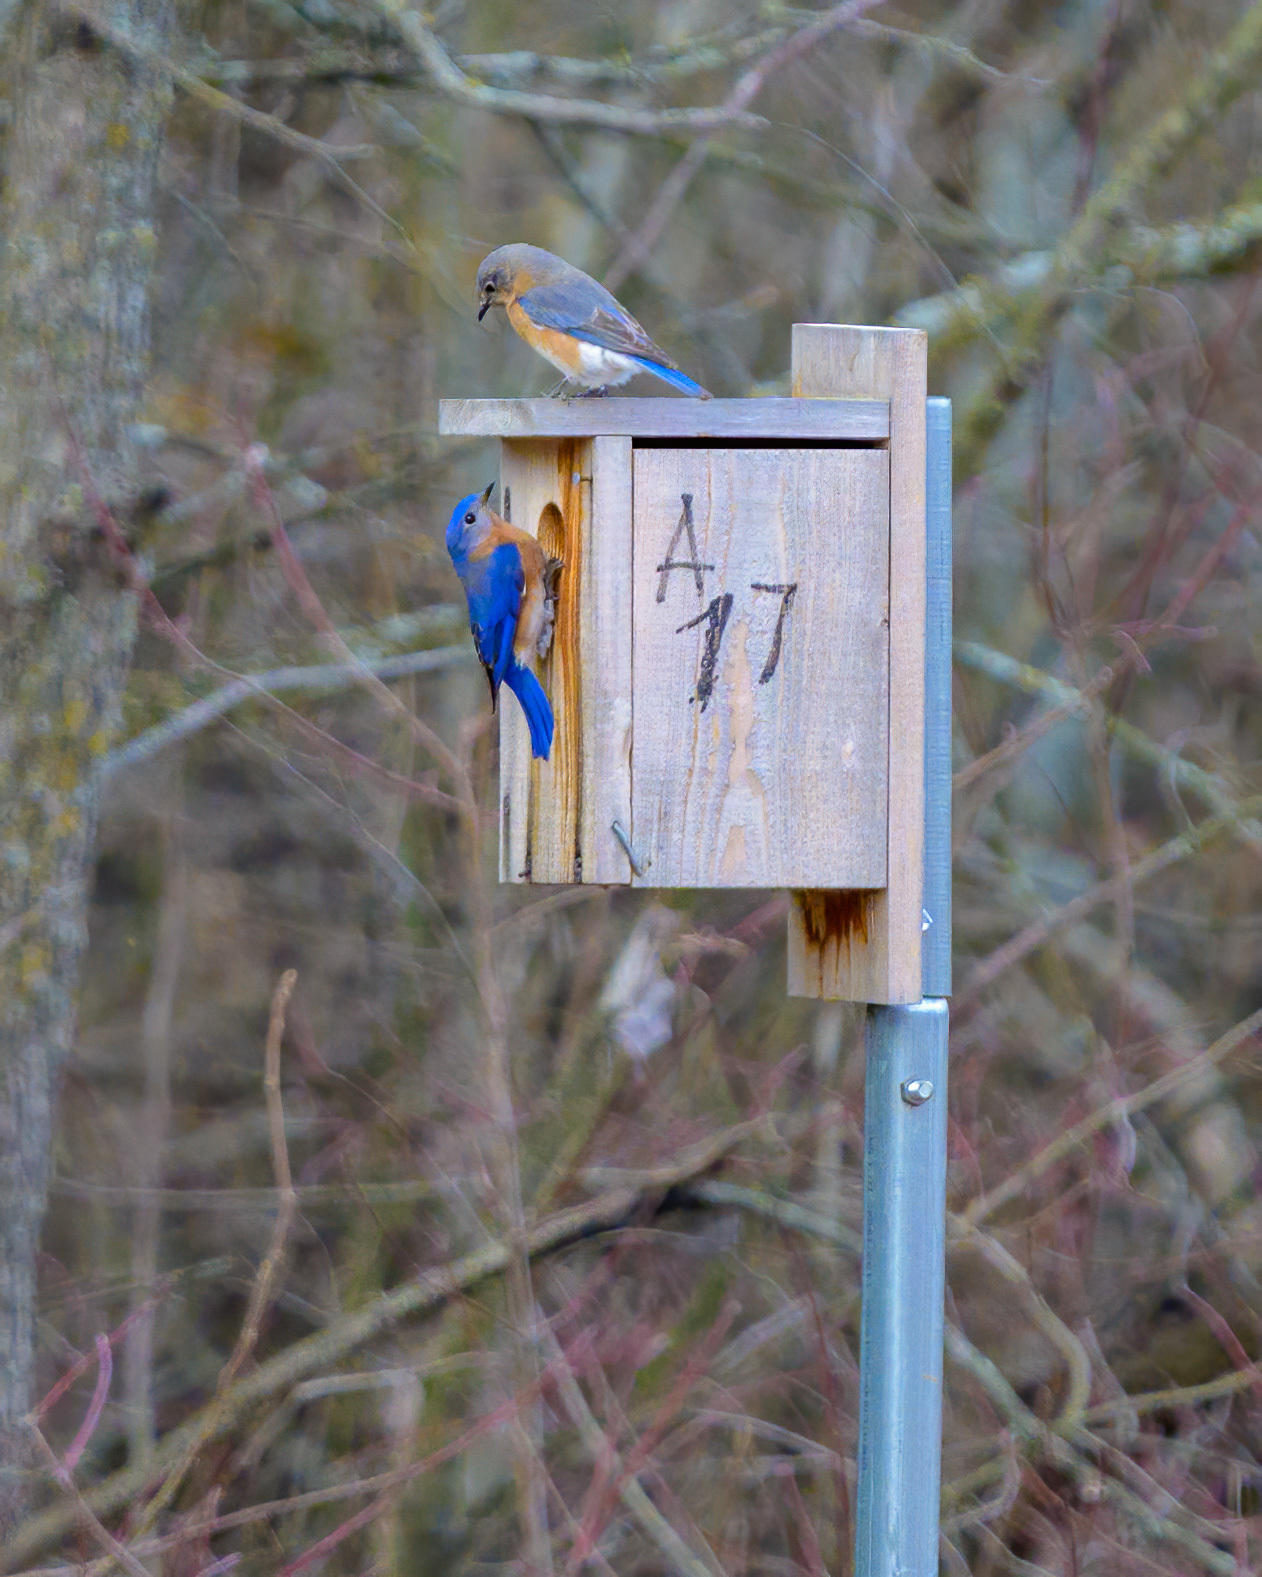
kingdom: Animalia
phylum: Chordata
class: Aves
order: Passeriformes
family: Turdidae
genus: Sialia
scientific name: Sialia sialis
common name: Eastern bluebird
